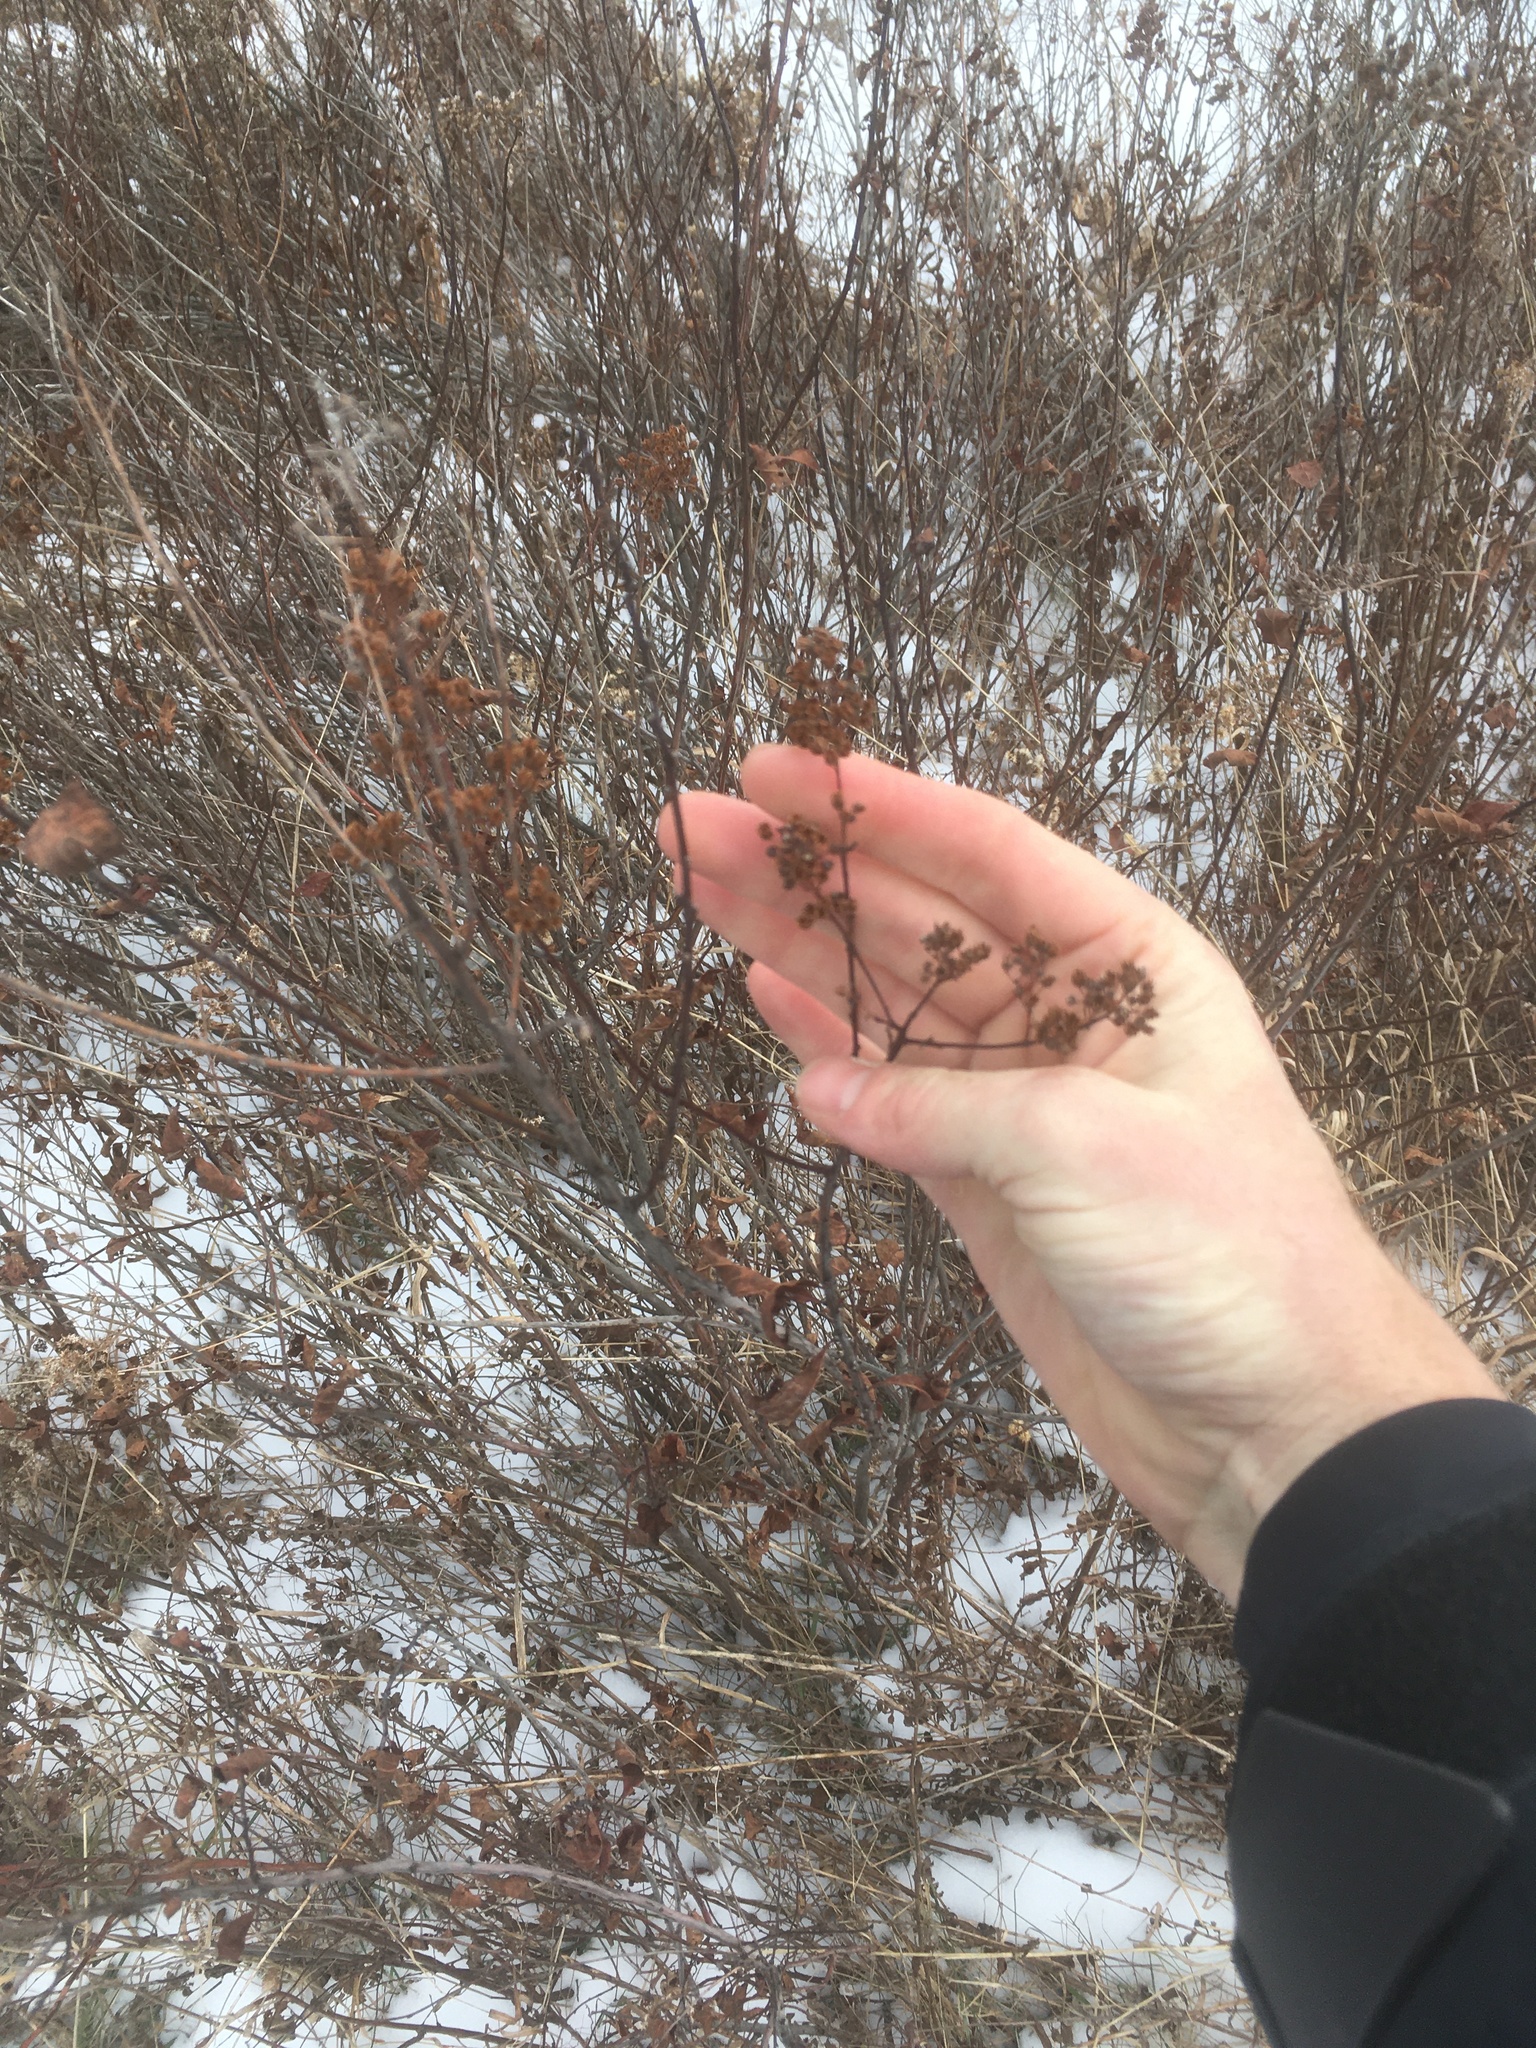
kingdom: Plantae
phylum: Tracheophyta
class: Magnoliopsida
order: Rosales
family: Rosaceae
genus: Spiraea
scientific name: Spiraea alba
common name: Pale bridewort
